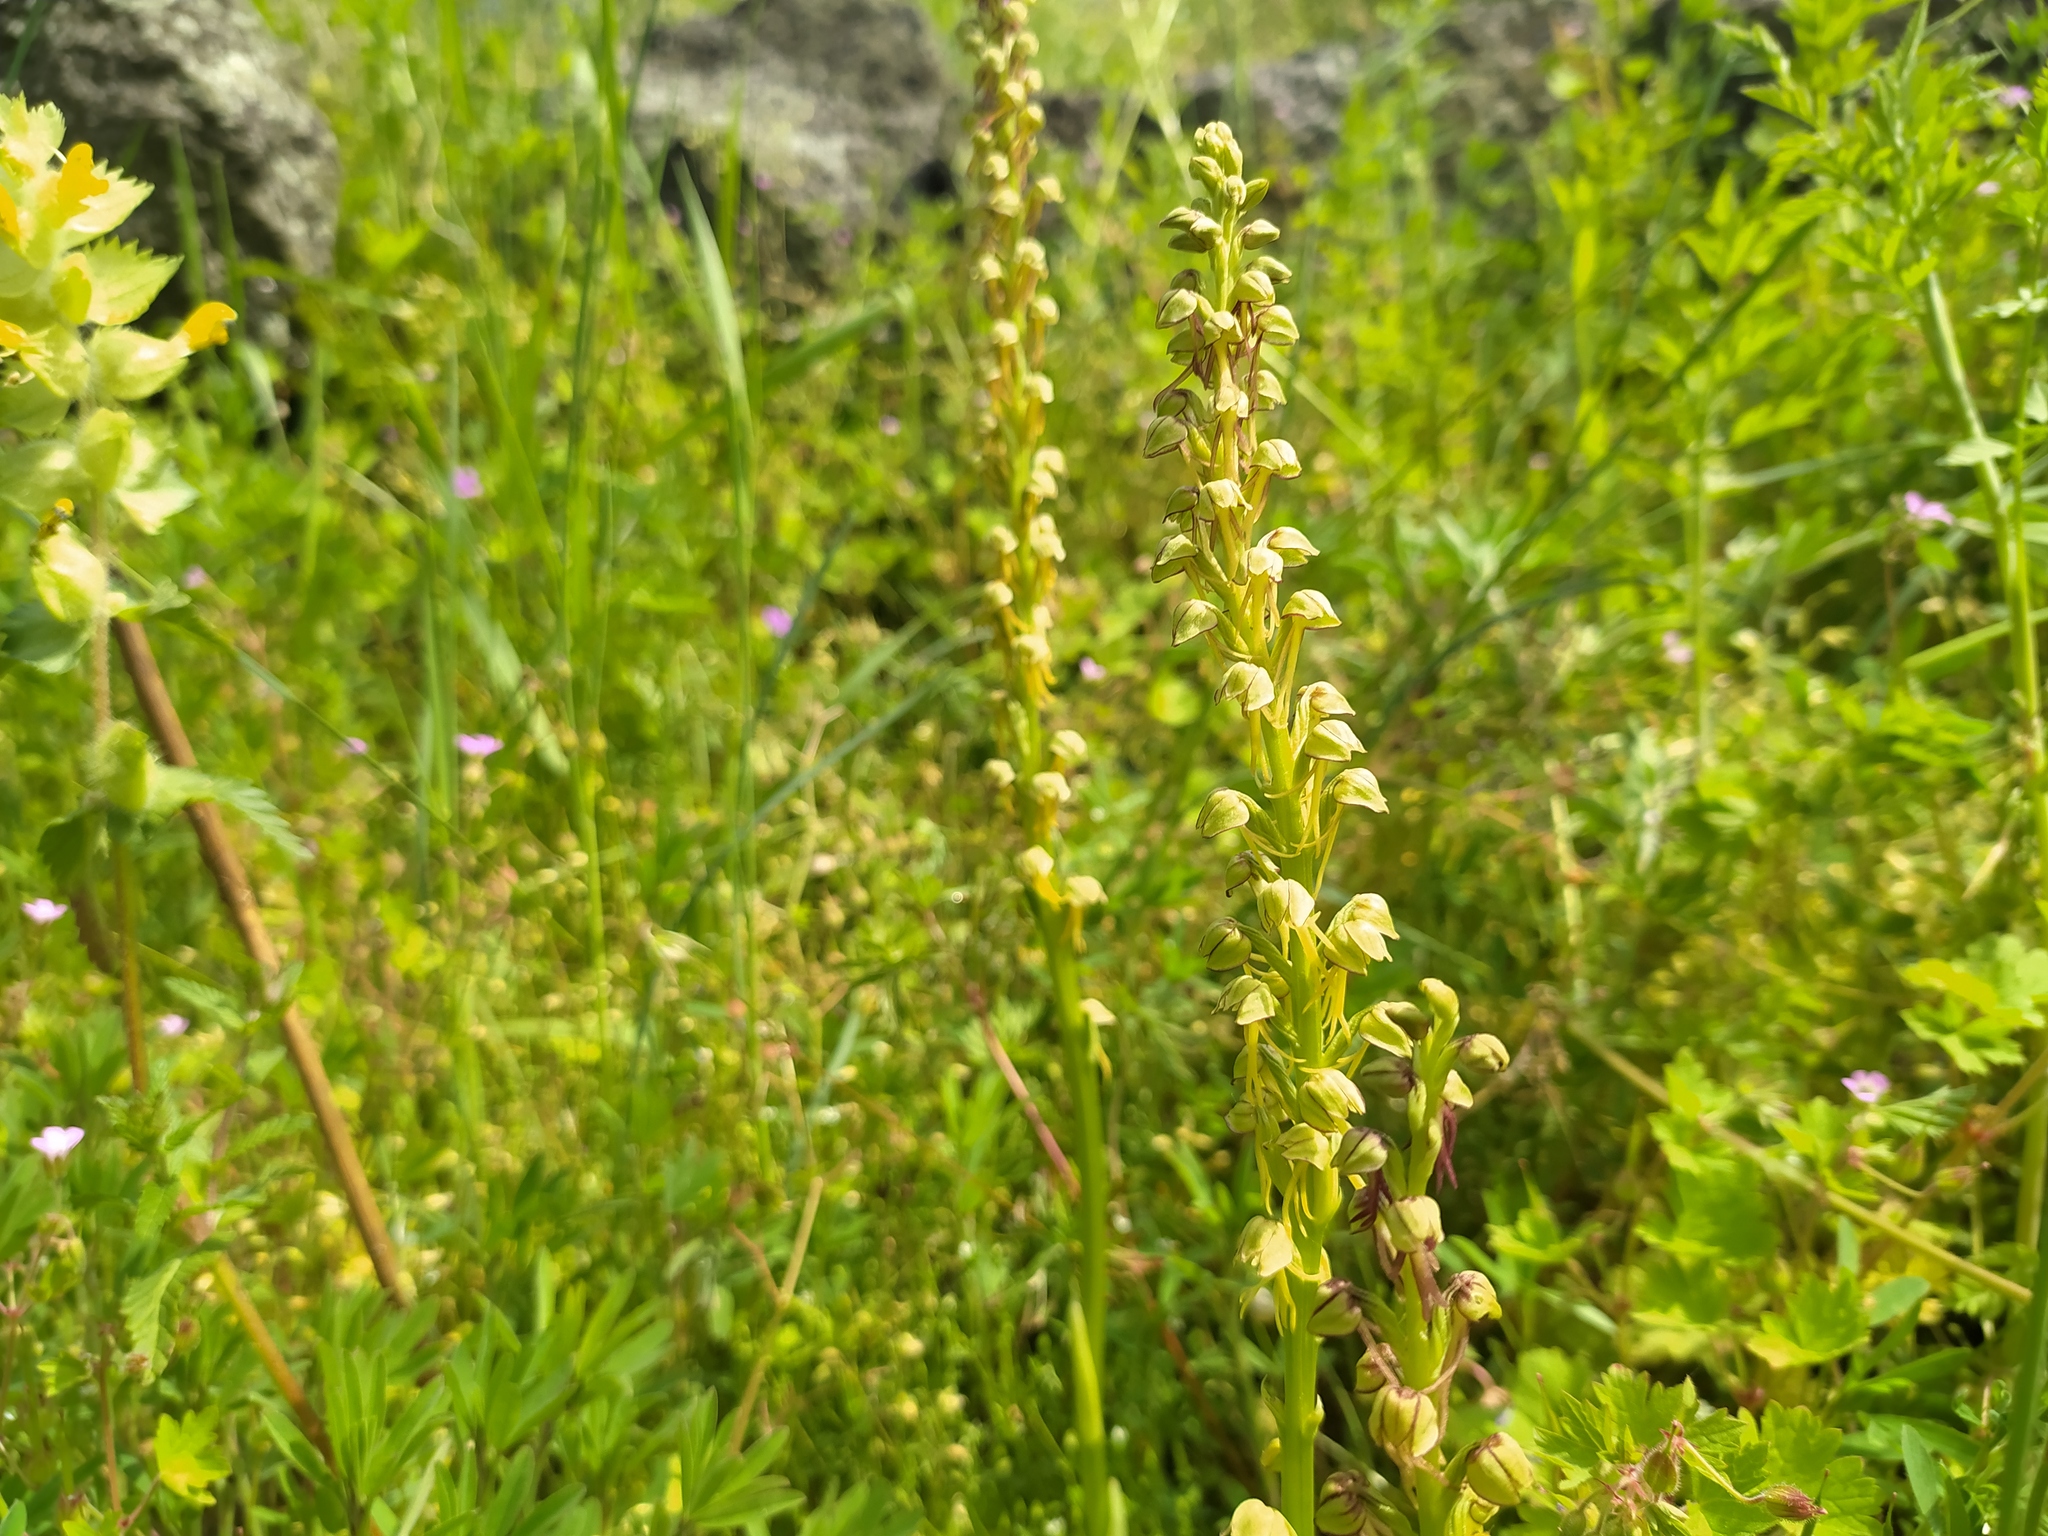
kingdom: Plantae
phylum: Tracheophyta
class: Liliopsida
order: Asparagales
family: Orchidaceae
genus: Orchis
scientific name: Orchis anthropophora
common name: Man orchid
